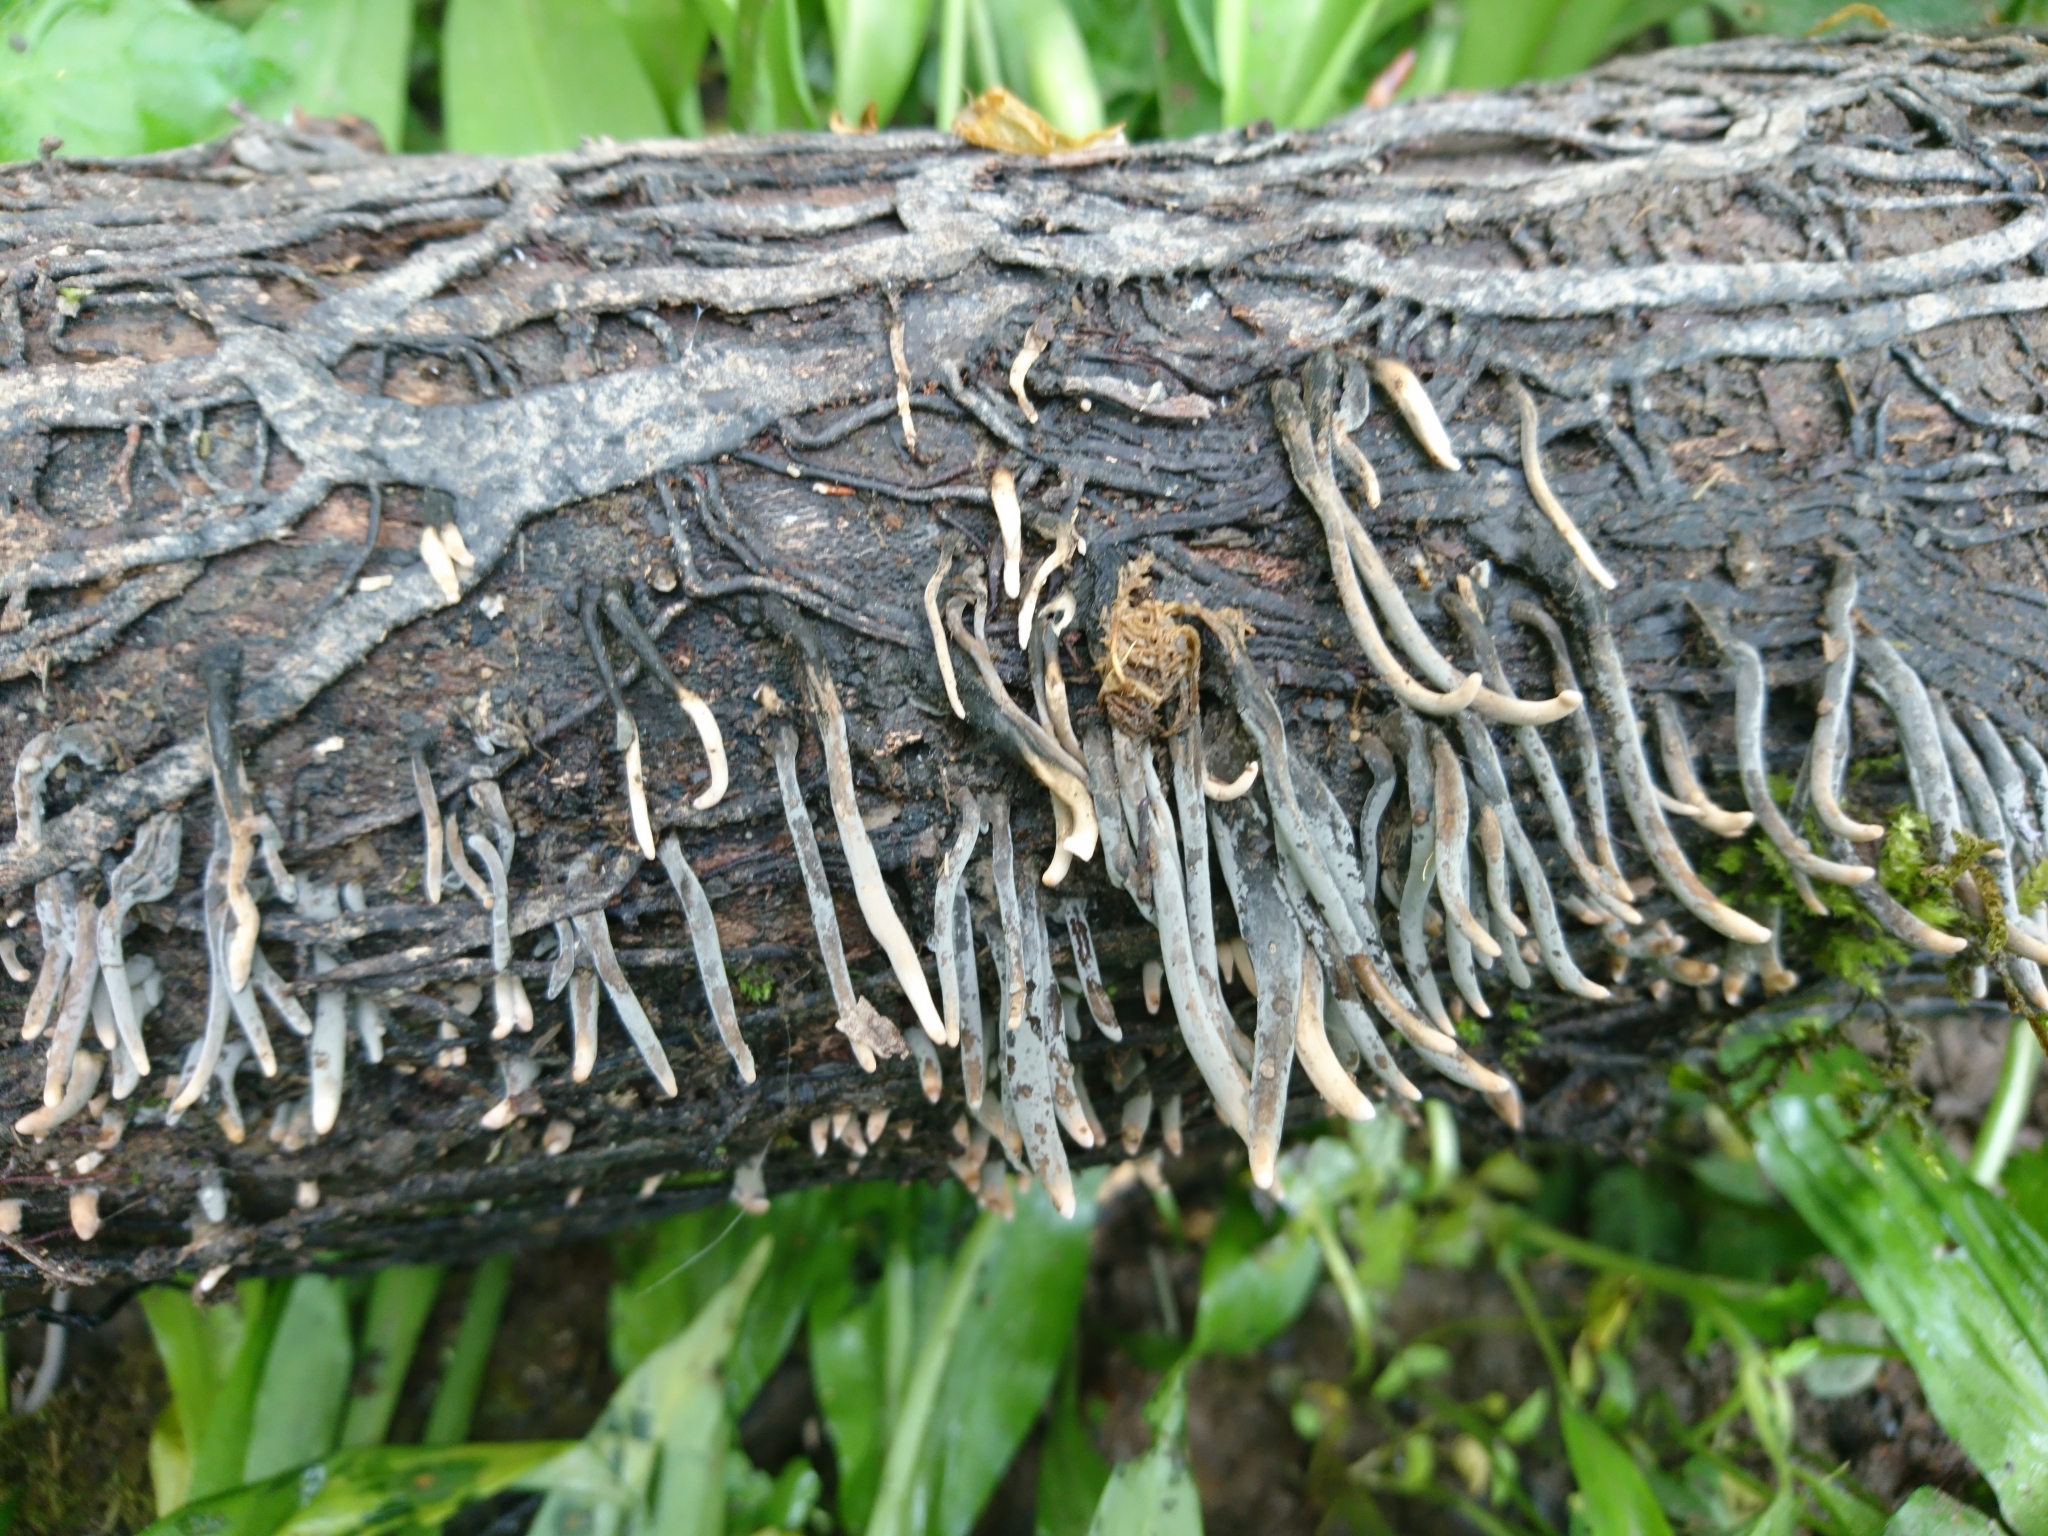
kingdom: Fungi
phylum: Ascomycota
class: Sordariomycetes
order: Xylariales
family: Xylariaceae
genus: Xylaria
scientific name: Xylaria hypoxylon
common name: Candle-snuff fungus
